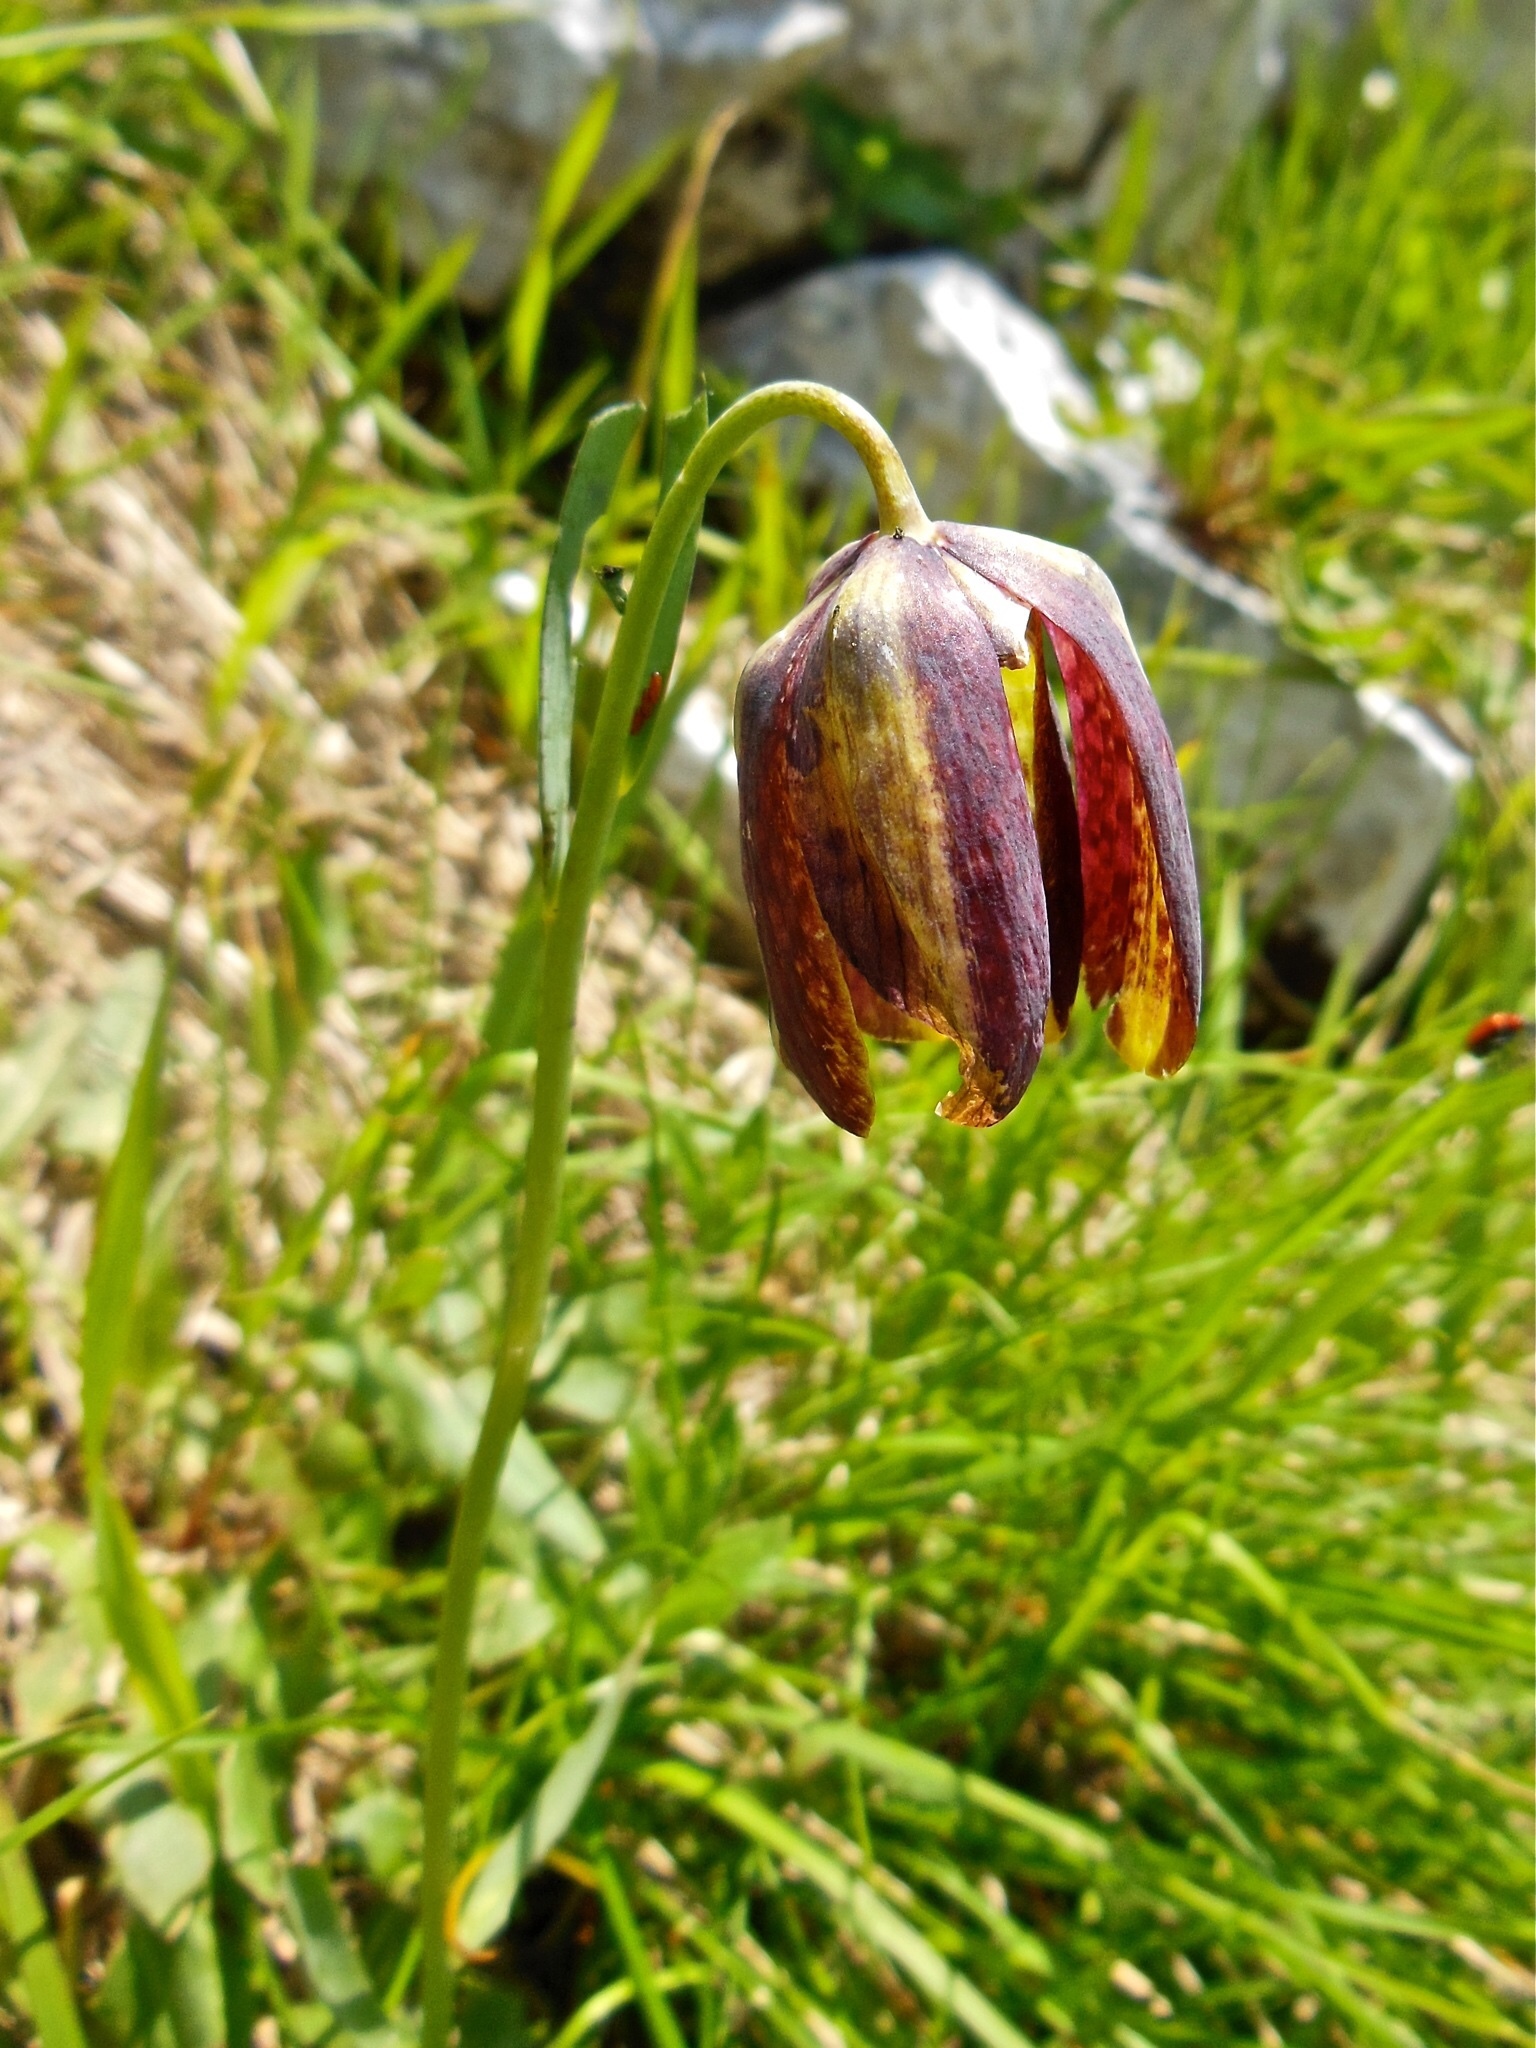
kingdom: Plantae
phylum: Tracheophyta
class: Liliopsida
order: Liliales
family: Liliaceae
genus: Fritillaria
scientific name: Fritillaria messanensis
